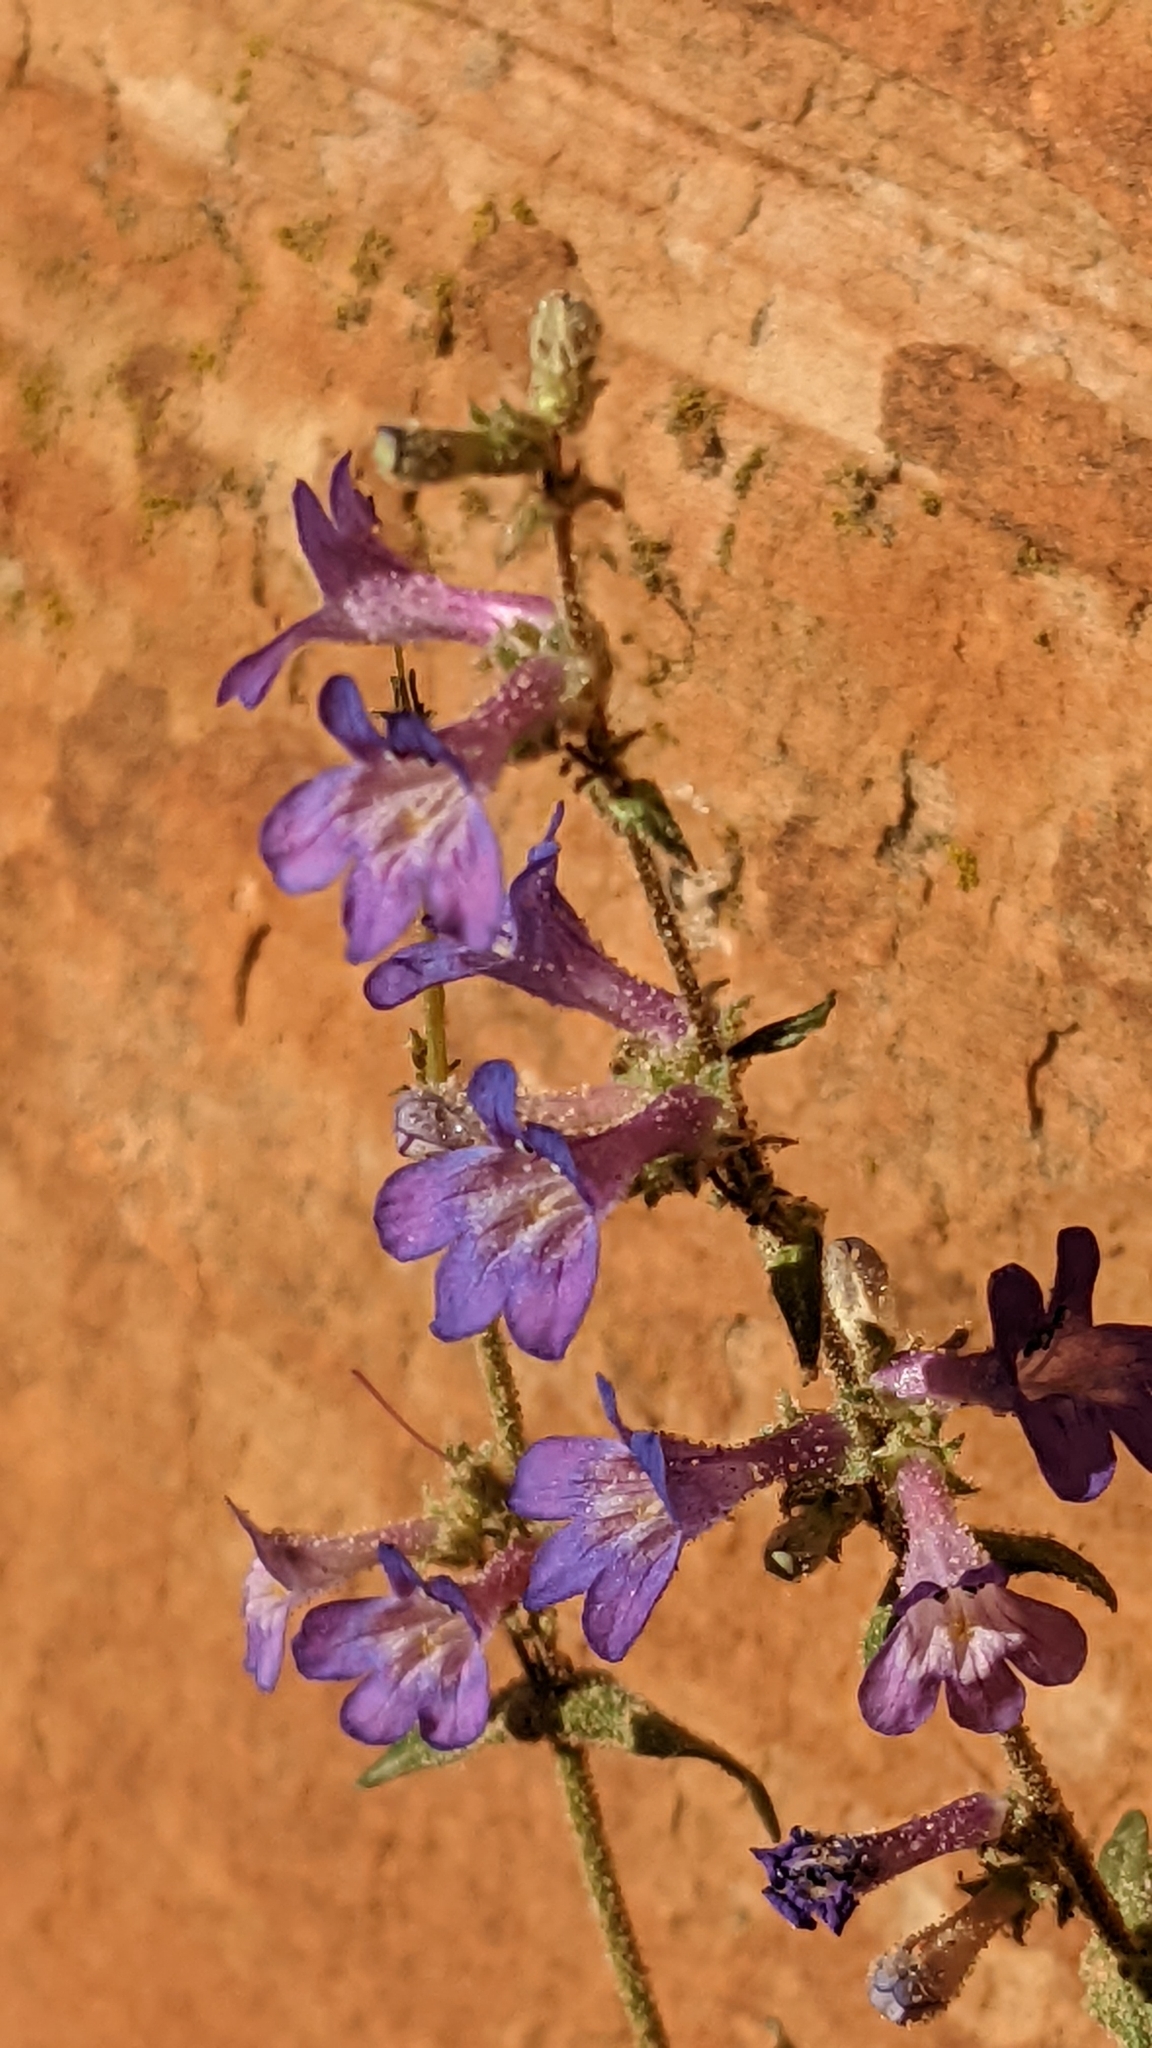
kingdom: Plantae
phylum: Tracheophyta
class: Magnoliopsida
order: Lamiales
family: Plantaginaceae
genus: Penstemon
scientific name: Penstemon humilis
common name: Low penstemon
